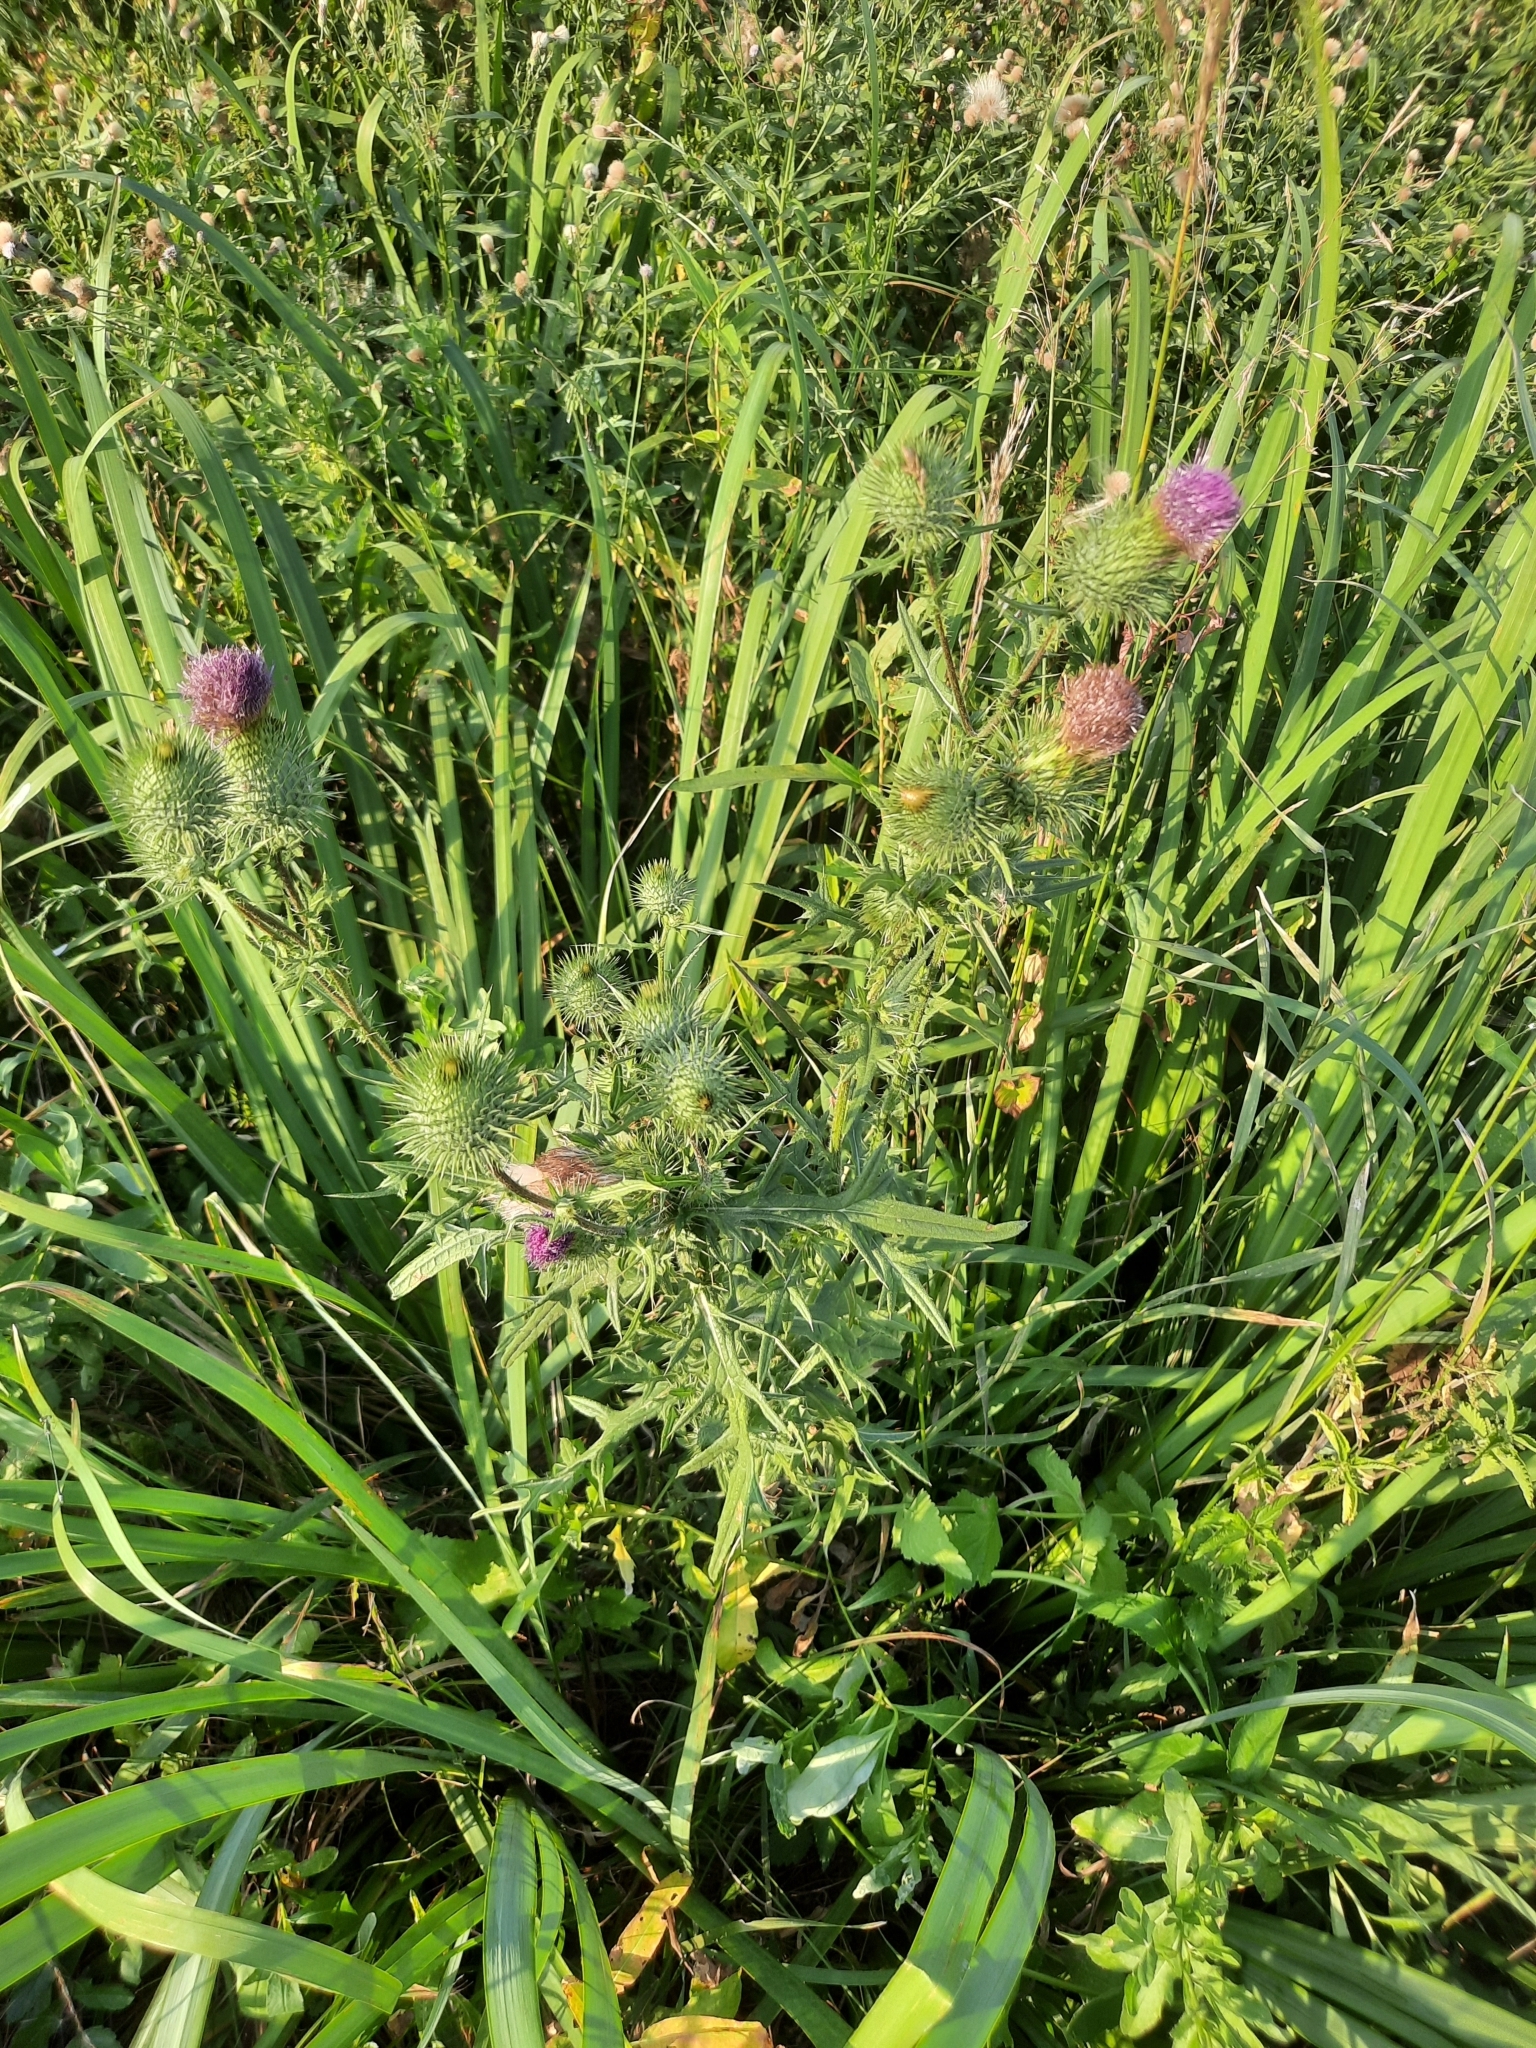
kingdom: Plantae
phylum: Tracheophyta
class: Magnoliopsida
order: Asterales
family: Asteraceae
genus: Cirsium
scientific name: Cirsium vulgare
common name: Bull thistle
